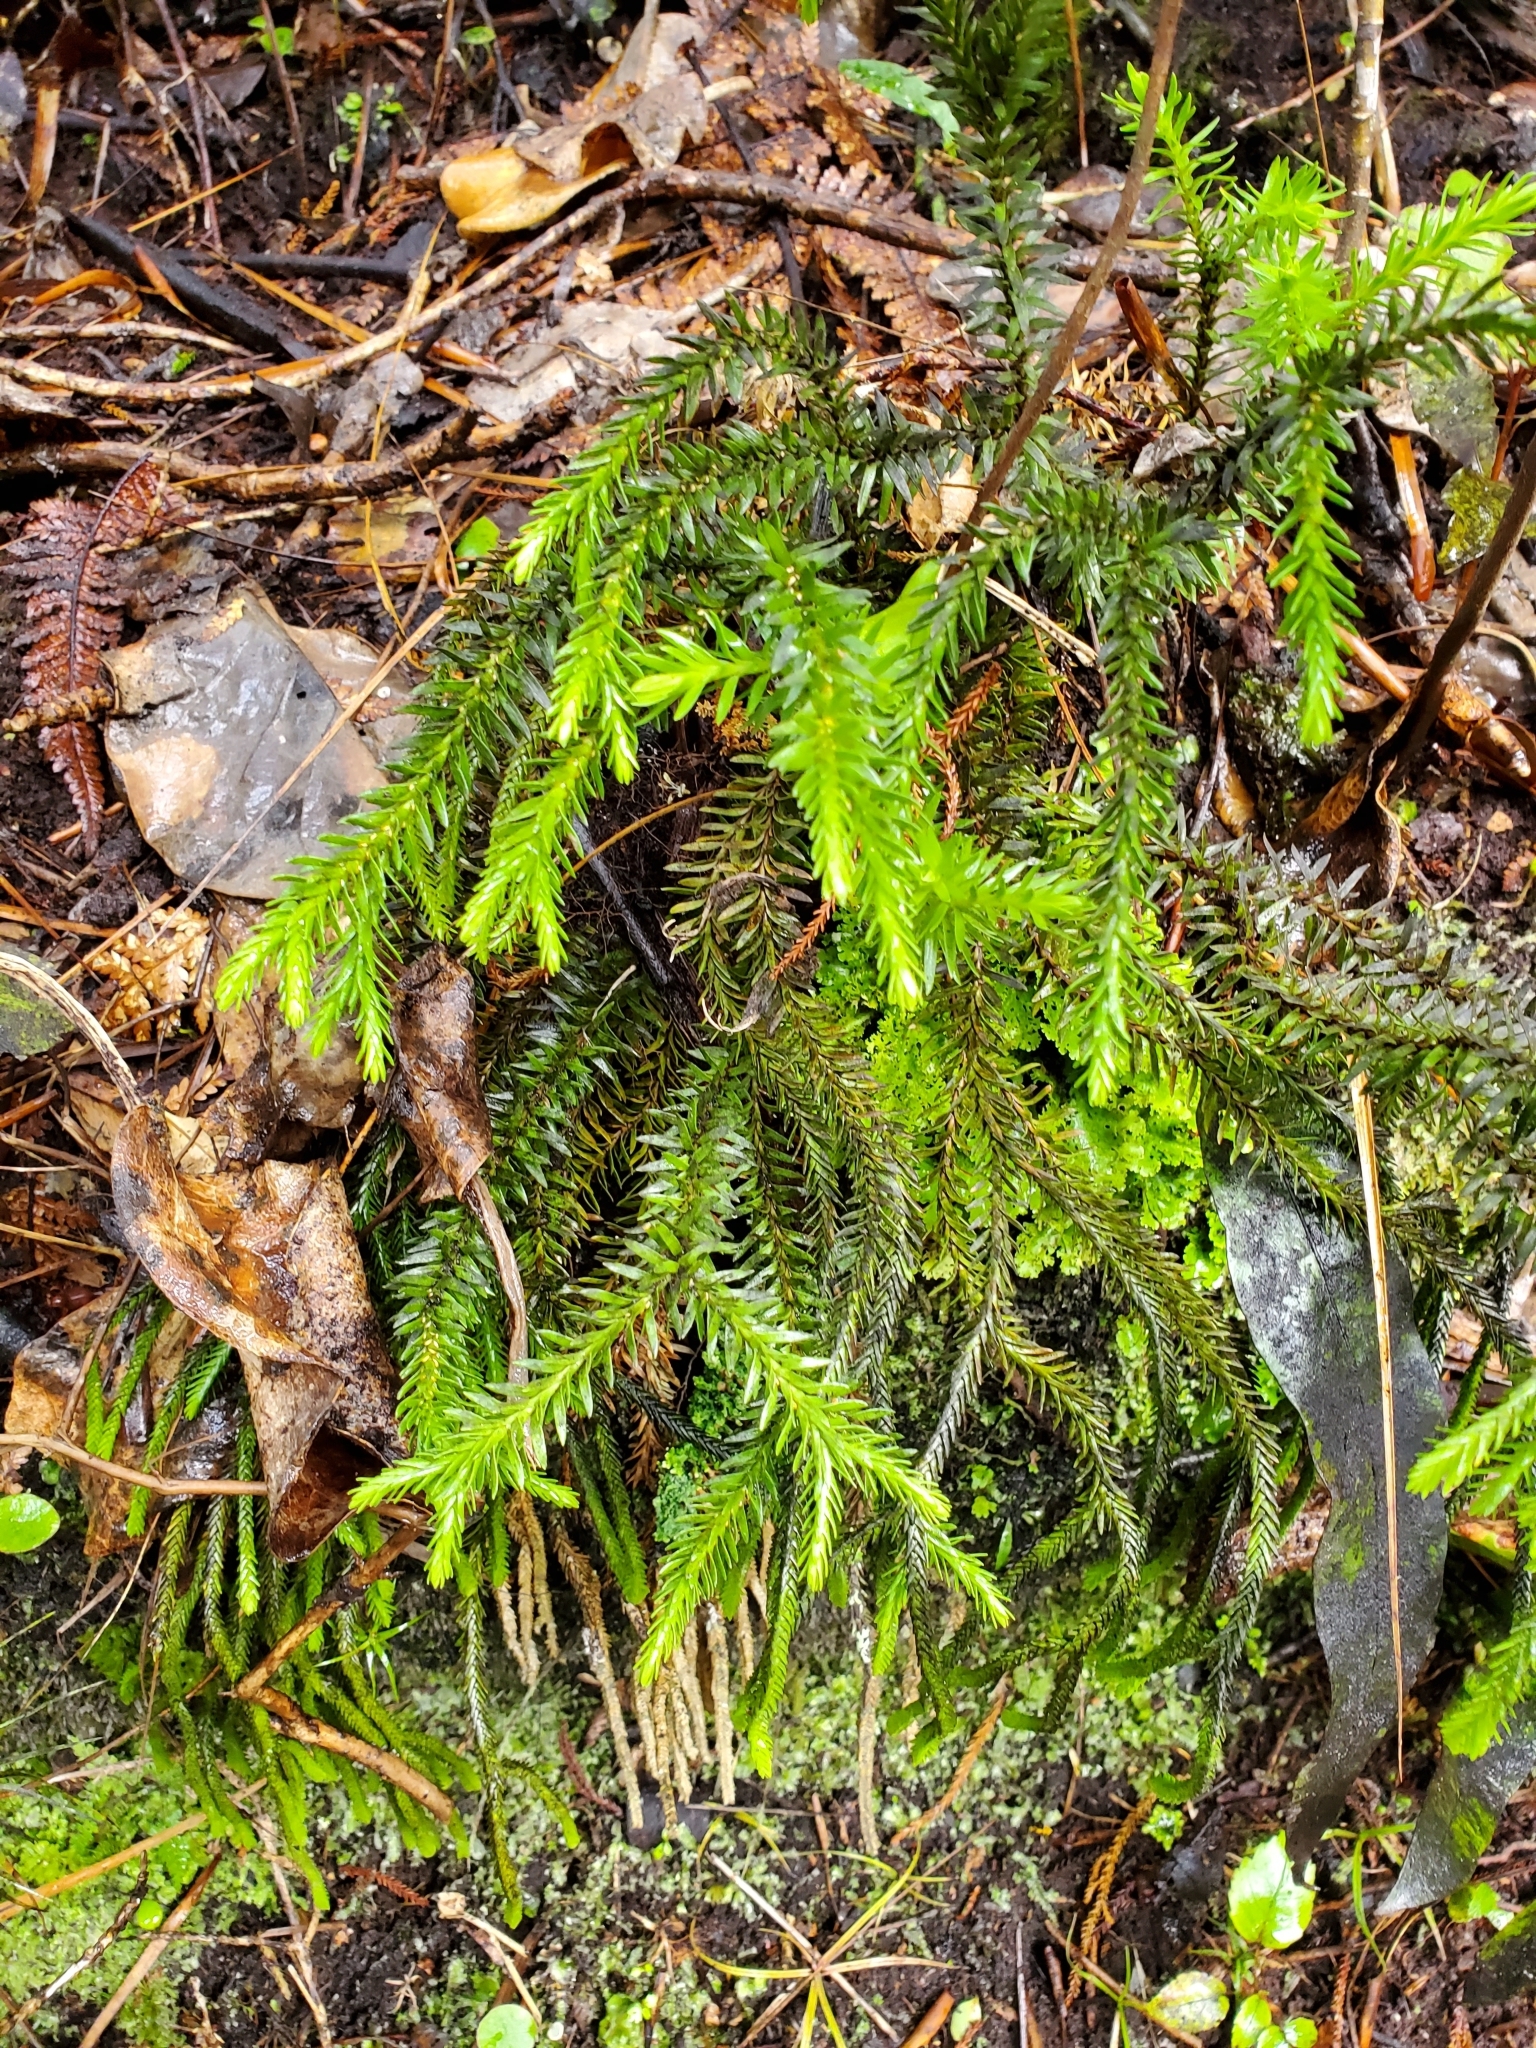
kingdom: Plantae
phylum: Tracheophyta
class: Lycopodiopsida
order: Lycopodiales
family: Lycopodiaceae
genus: Phlegmariurus
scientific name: Phlegmariurus varius
